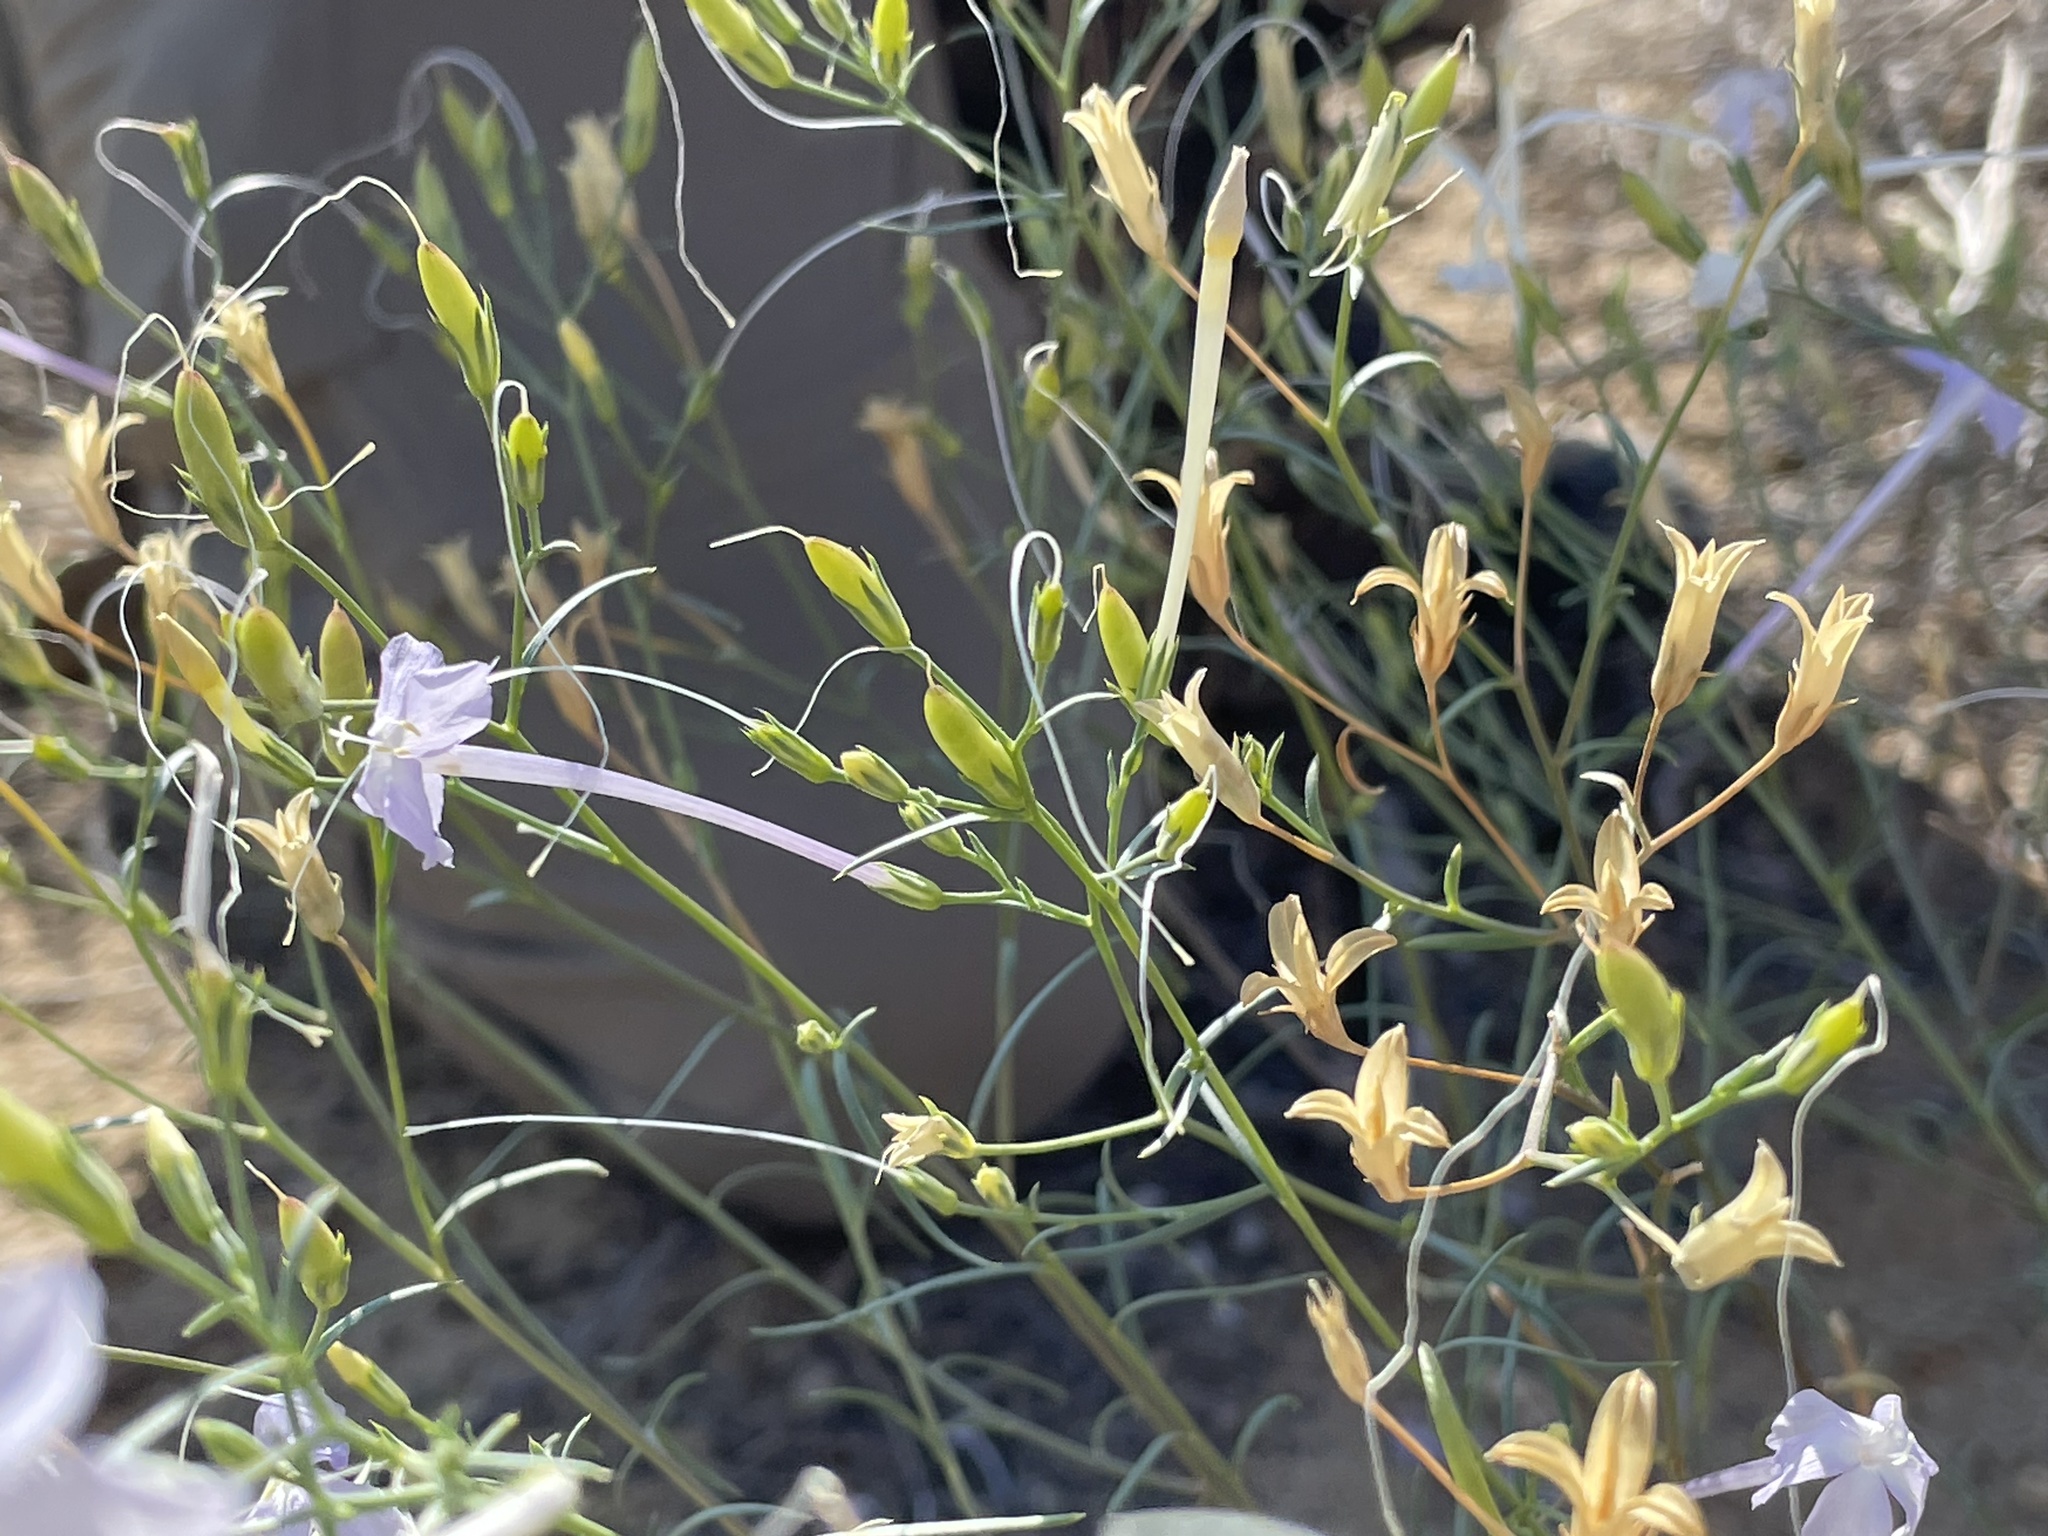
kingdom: Plantae
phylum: Tracheophyta
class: Magnoliopsida
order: Ericales
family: Polemoniaceae
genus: Ipomopsis
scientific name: Ipomopsis longiflora
